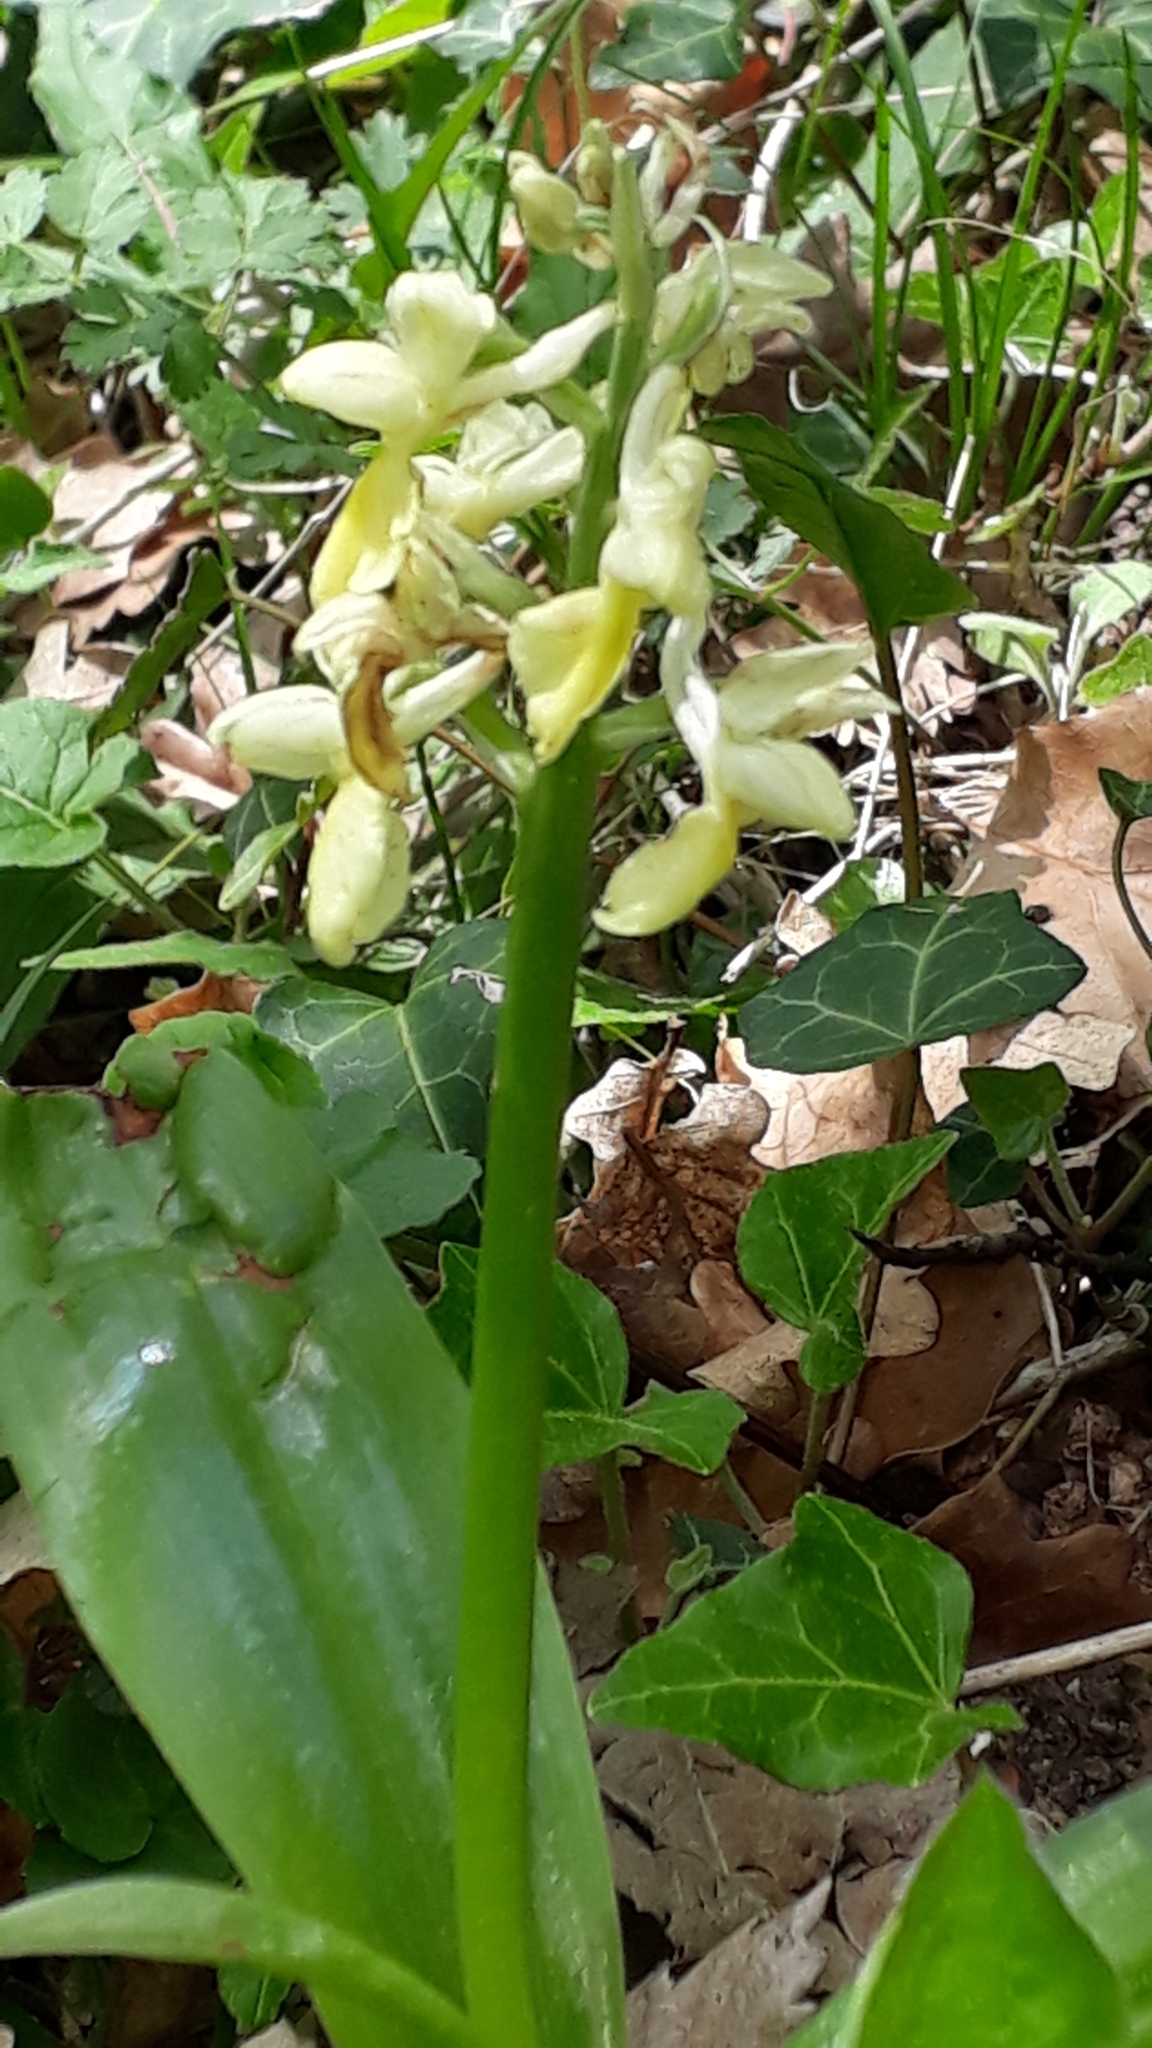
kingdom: Plantae
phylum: Tracheophyta
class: Liliopsida
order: Asparagales
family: Orchidaceae
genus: Orchis
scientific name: Orchis pallens
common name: Pale-flowered orchid
